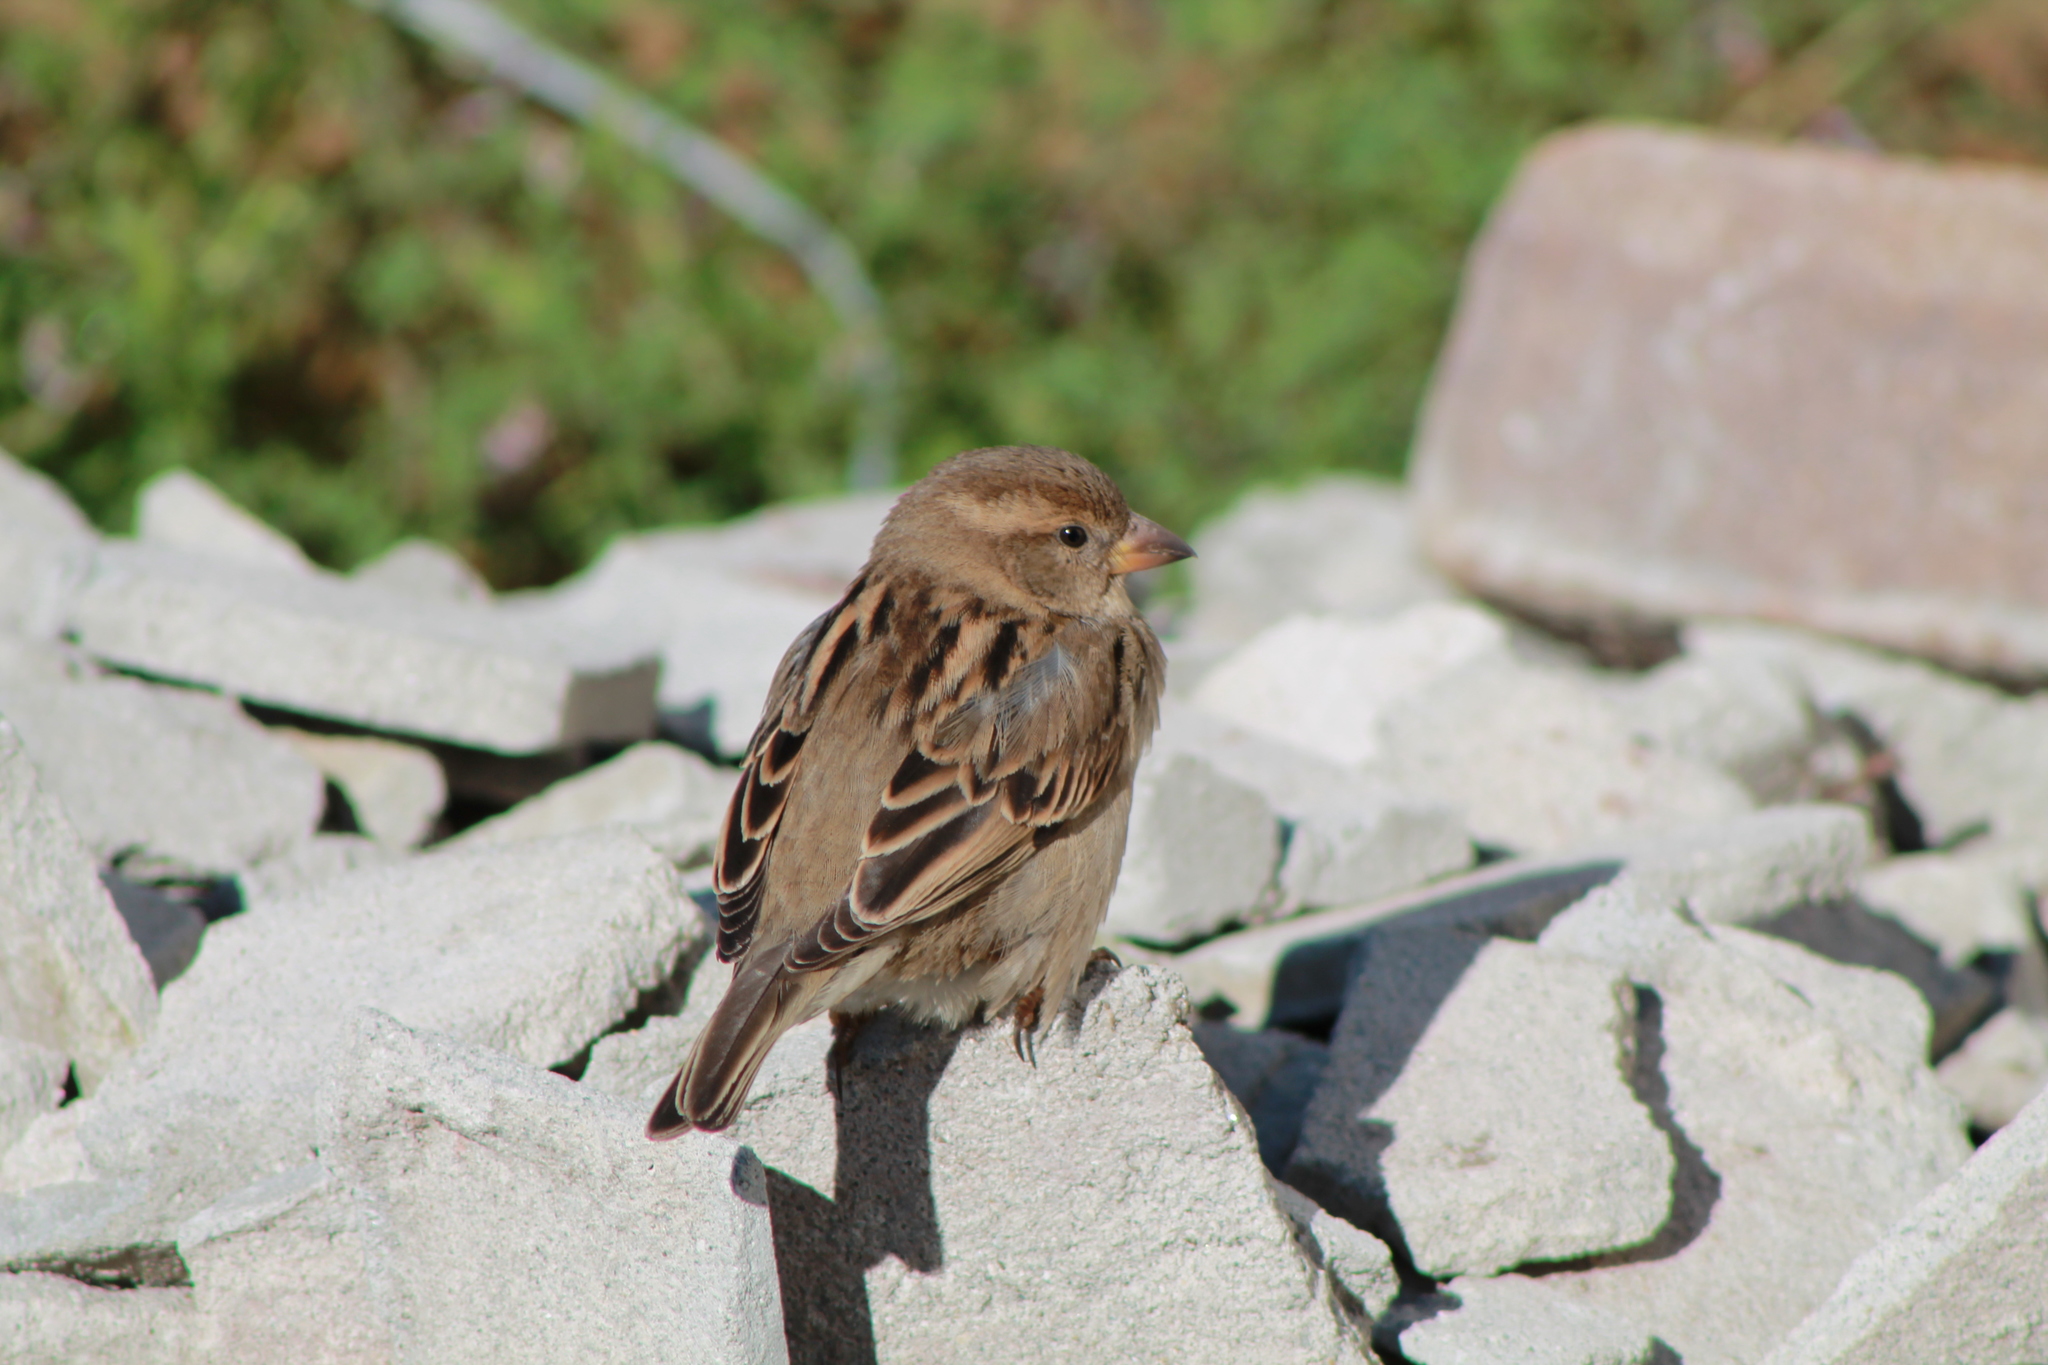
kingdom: Animalia
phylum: Chordata
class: Aves
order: Passeriformes
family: Passeridae
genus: Passer
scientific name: Passer domesticus
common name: House sparrow
